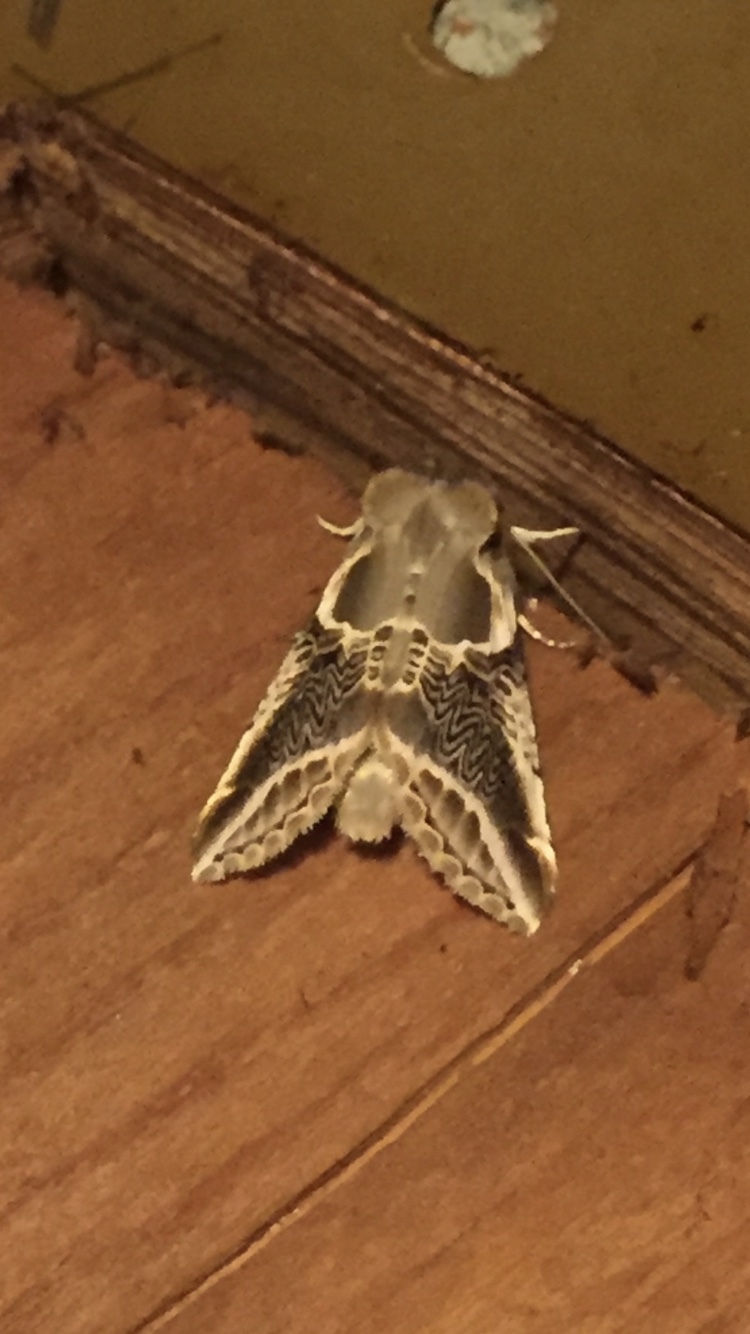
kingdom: Animalia
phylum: Arthropoda
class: Insecta
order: Lepidoptera
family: Drepanidae
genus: Habrosyne
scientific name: Habrosyne scripta
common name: Lettered habrosyne moth
